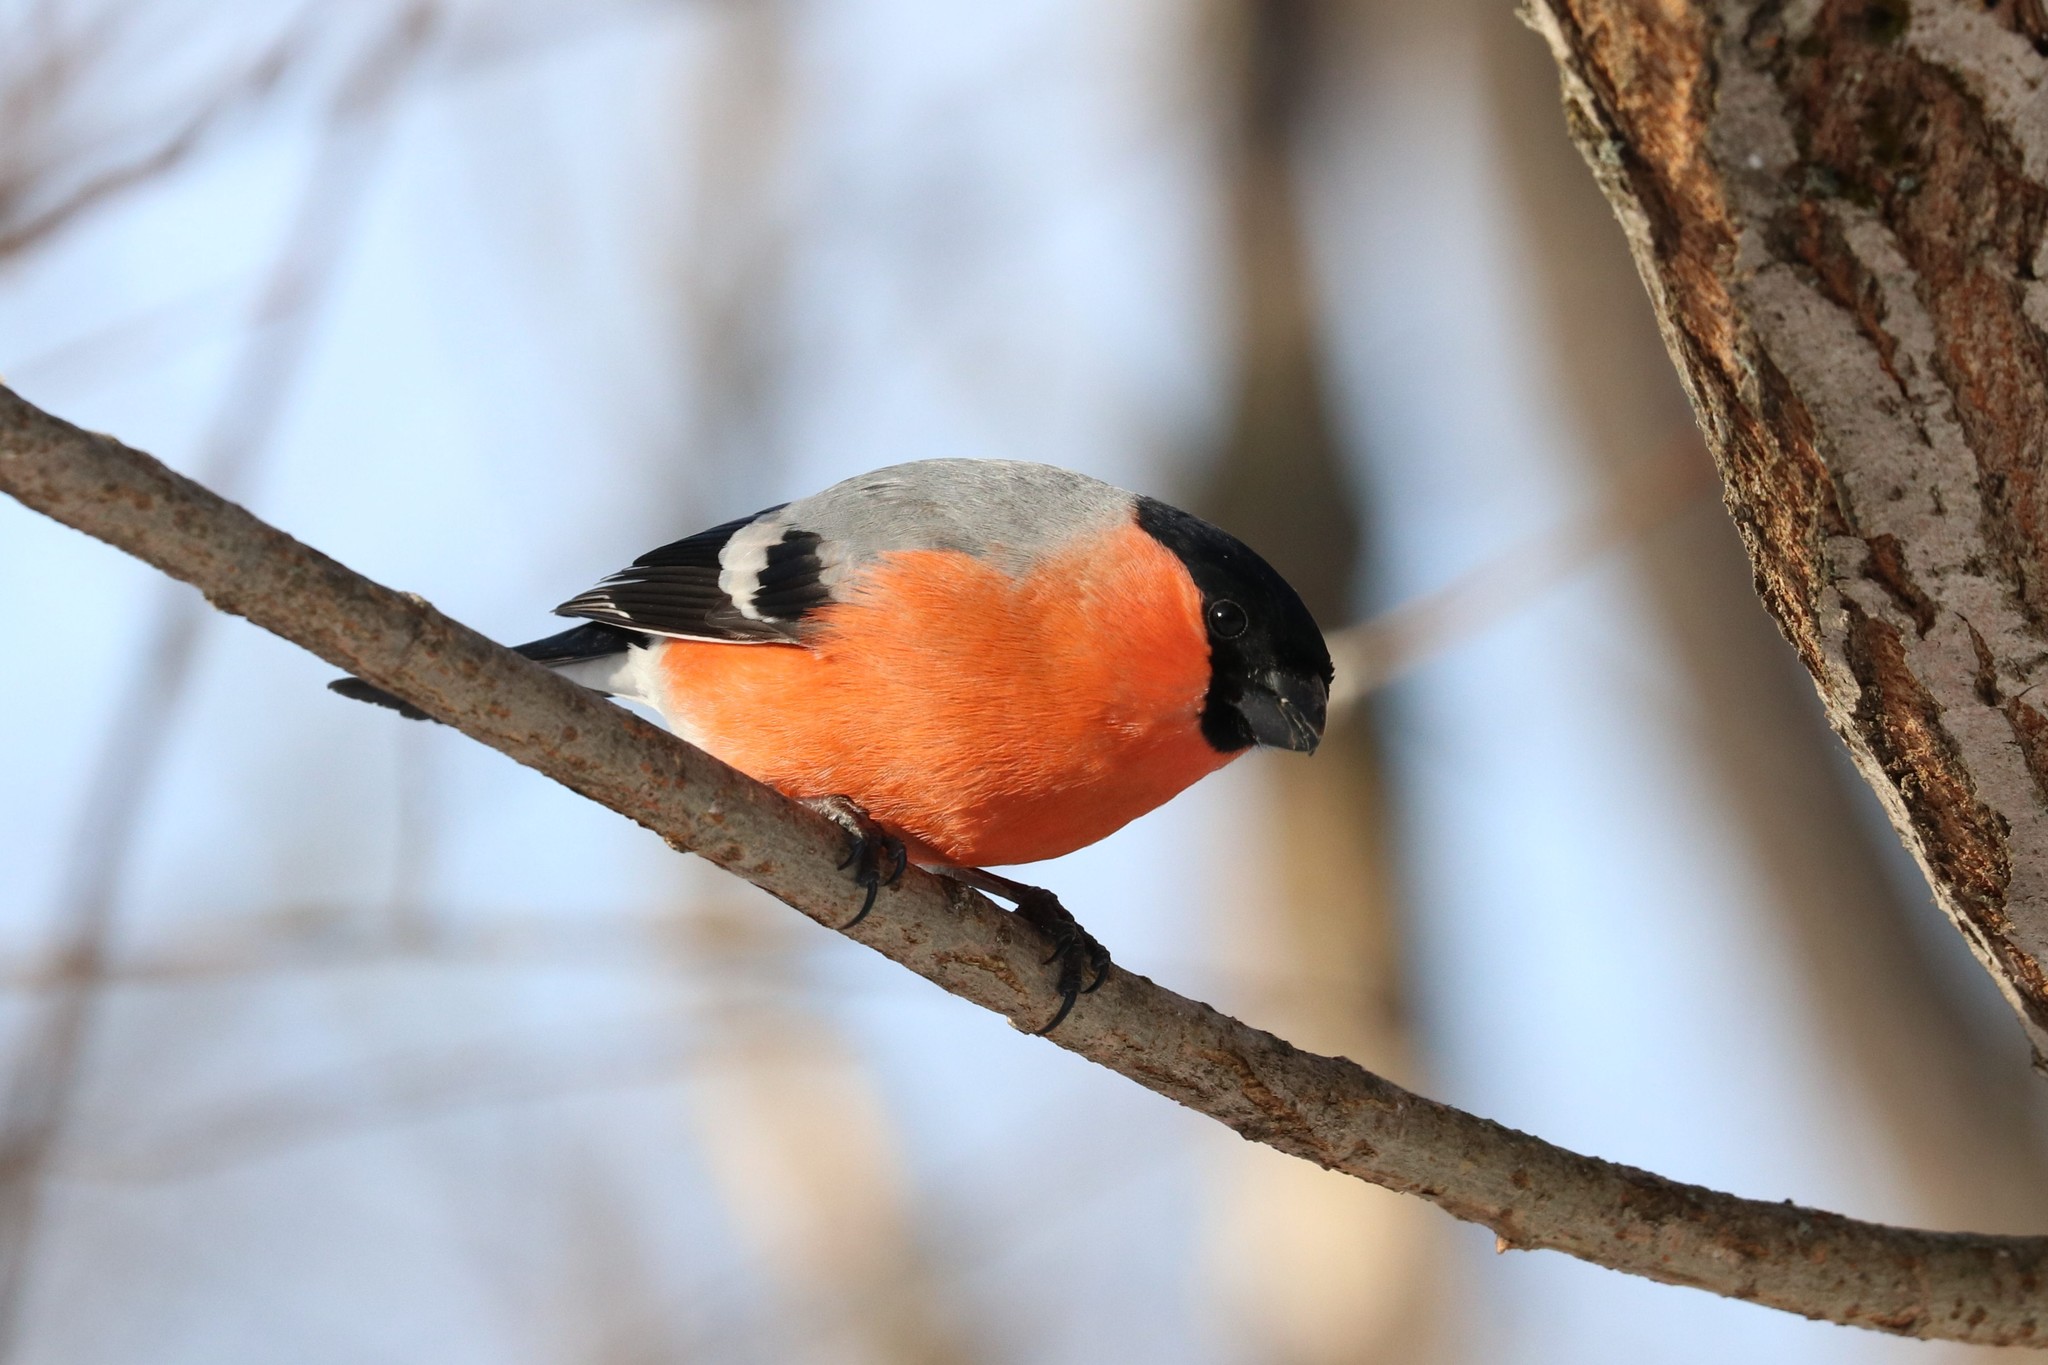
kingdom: Animalia
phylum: Chordata
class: Aves
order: Passeriformes
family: Fringillidae
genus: Pyrrhula
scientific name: Pyrrhula pyrrhula
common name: Eurasian bullfinch
